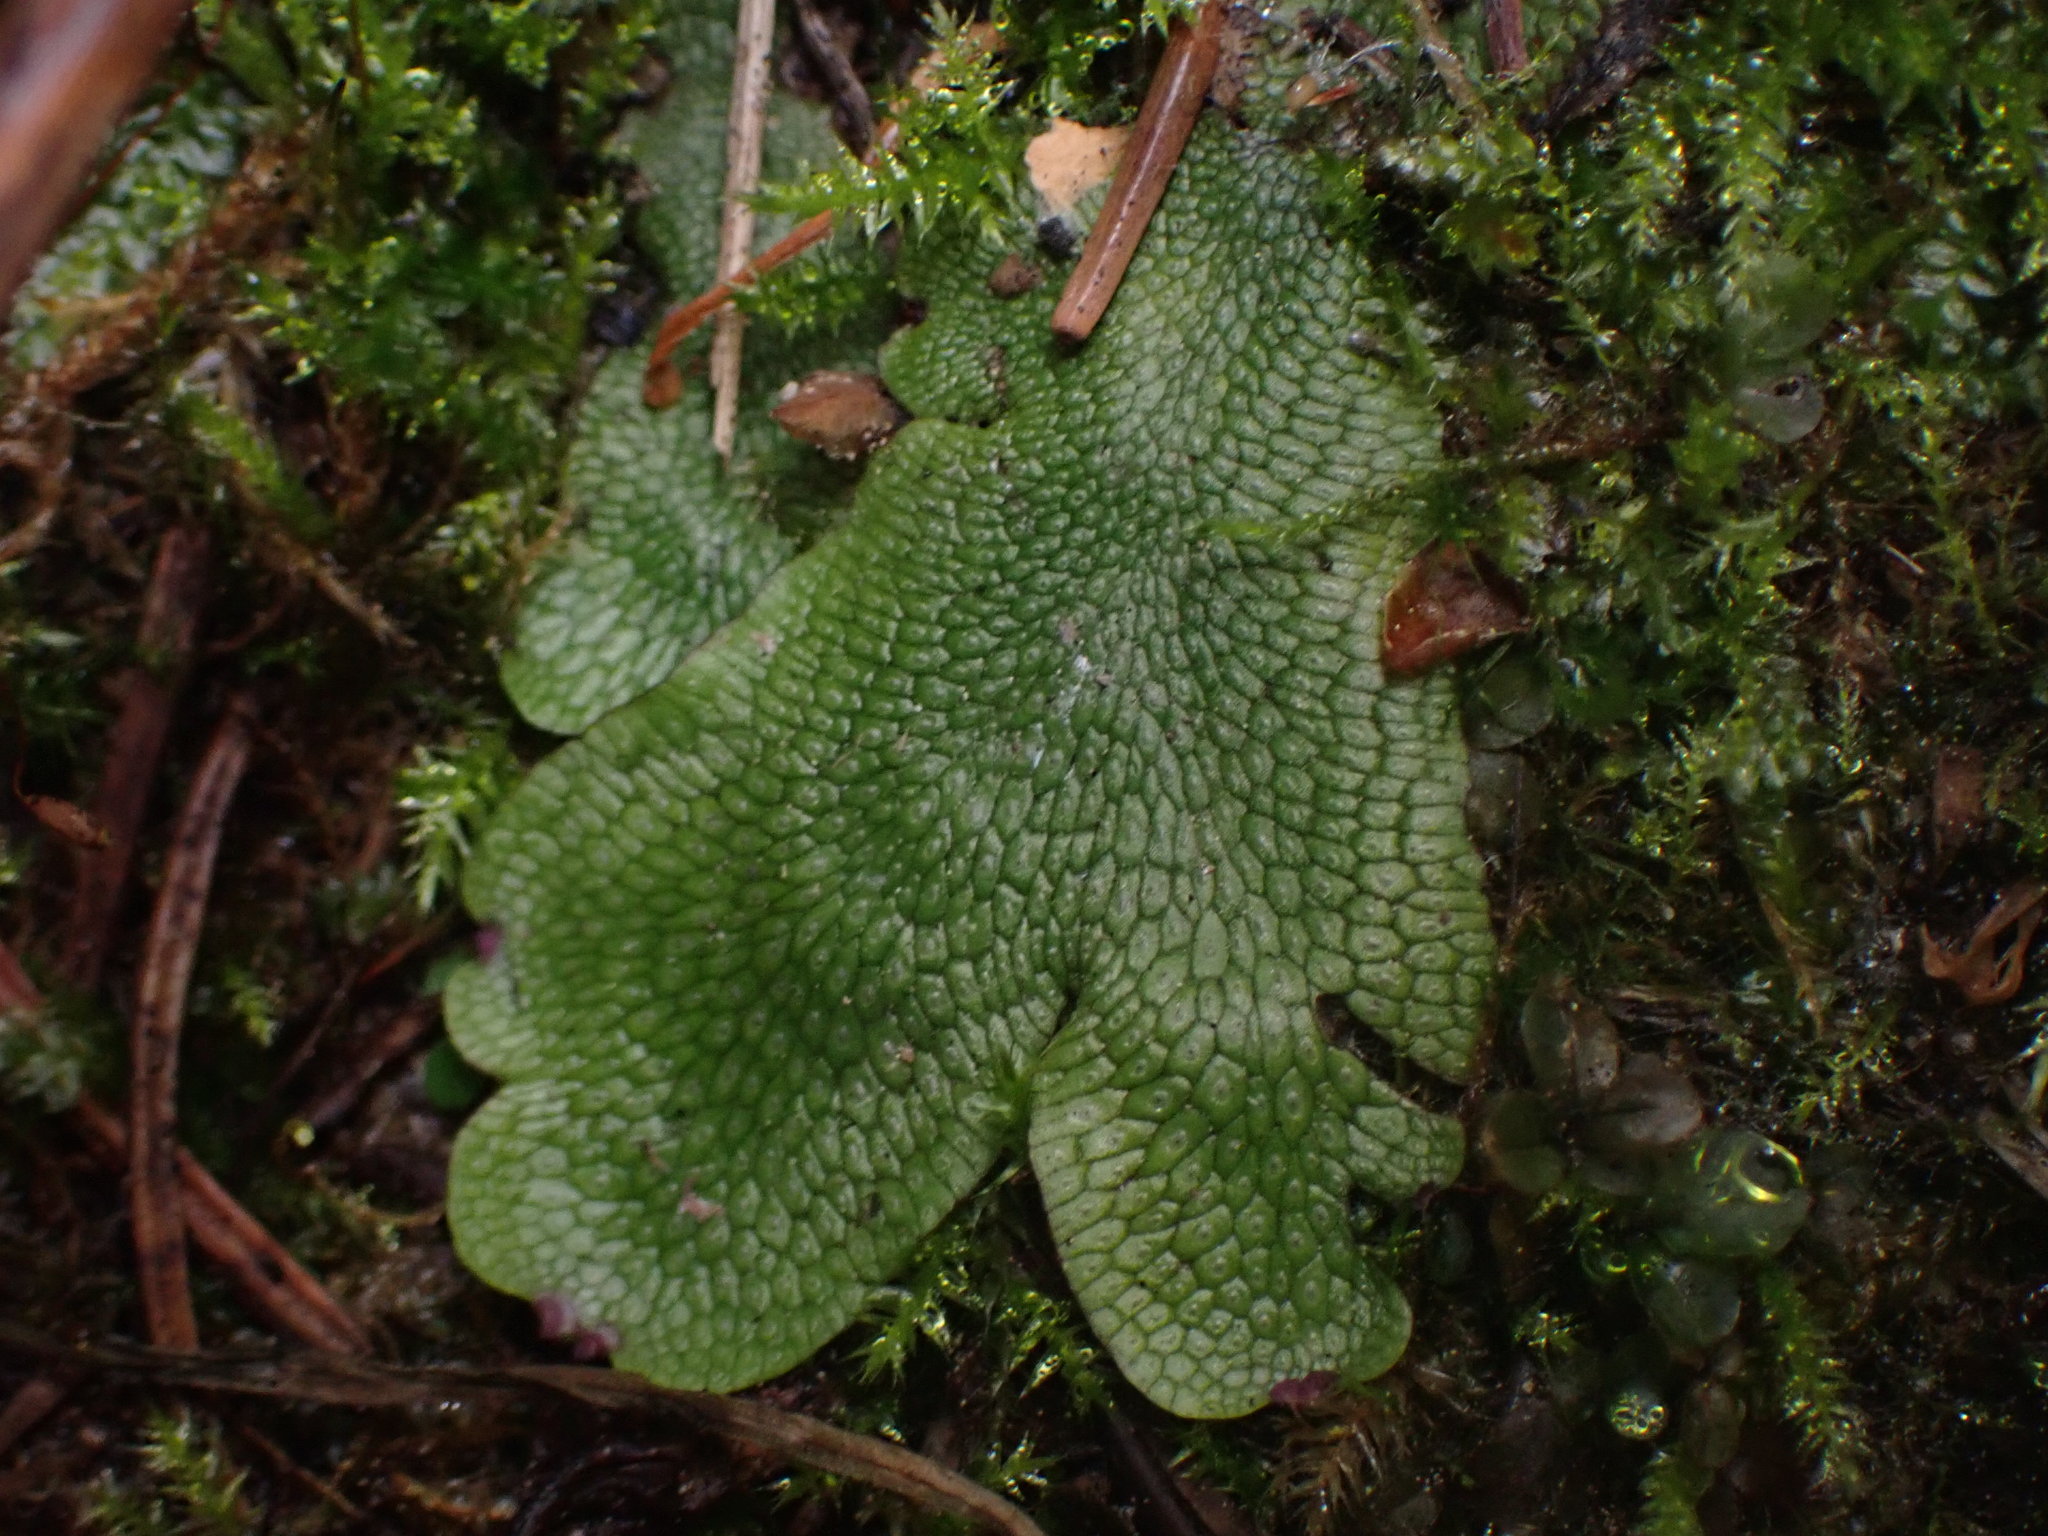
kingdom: Plantae
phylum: Marchantiophyta
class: Marchantiopsida
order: Marchantiales
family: Conocephalaceae
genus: Conocephalum
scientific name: Conocephalum salebrosum
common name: Cat-tongue liverwort
